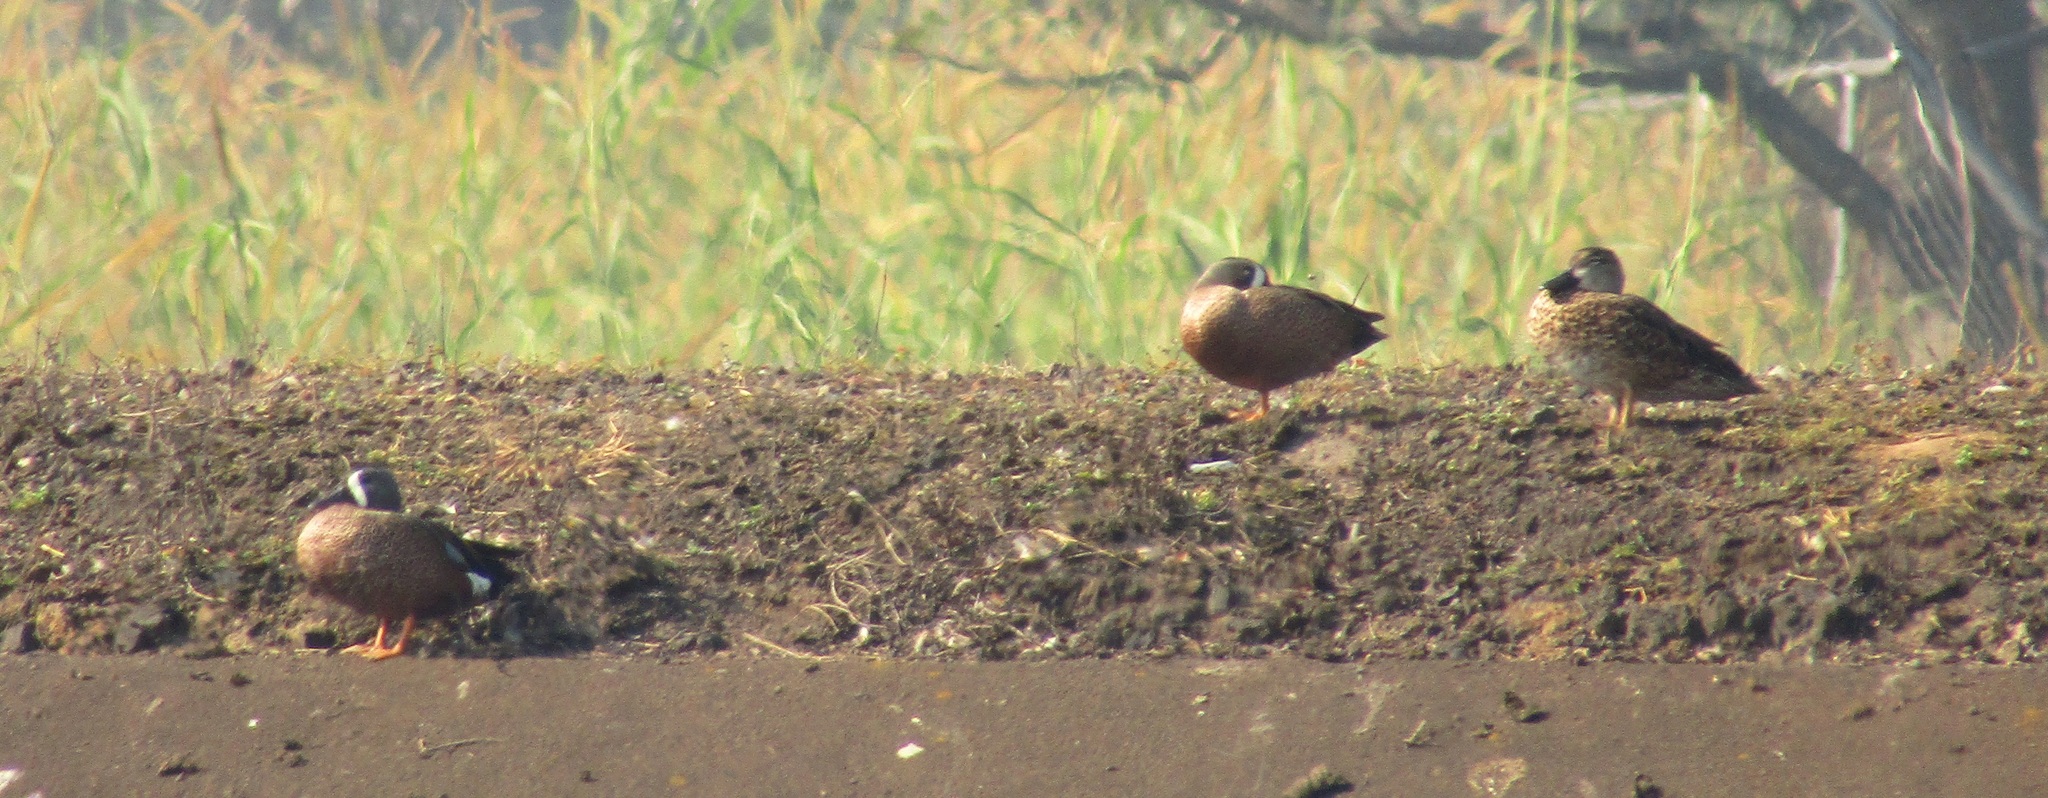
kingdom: Animalia
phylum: Chordata
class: Aves
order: Anseriformes
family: Anatidae
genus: Spatula
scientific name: Spatula discors
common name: Blue-winged teal
